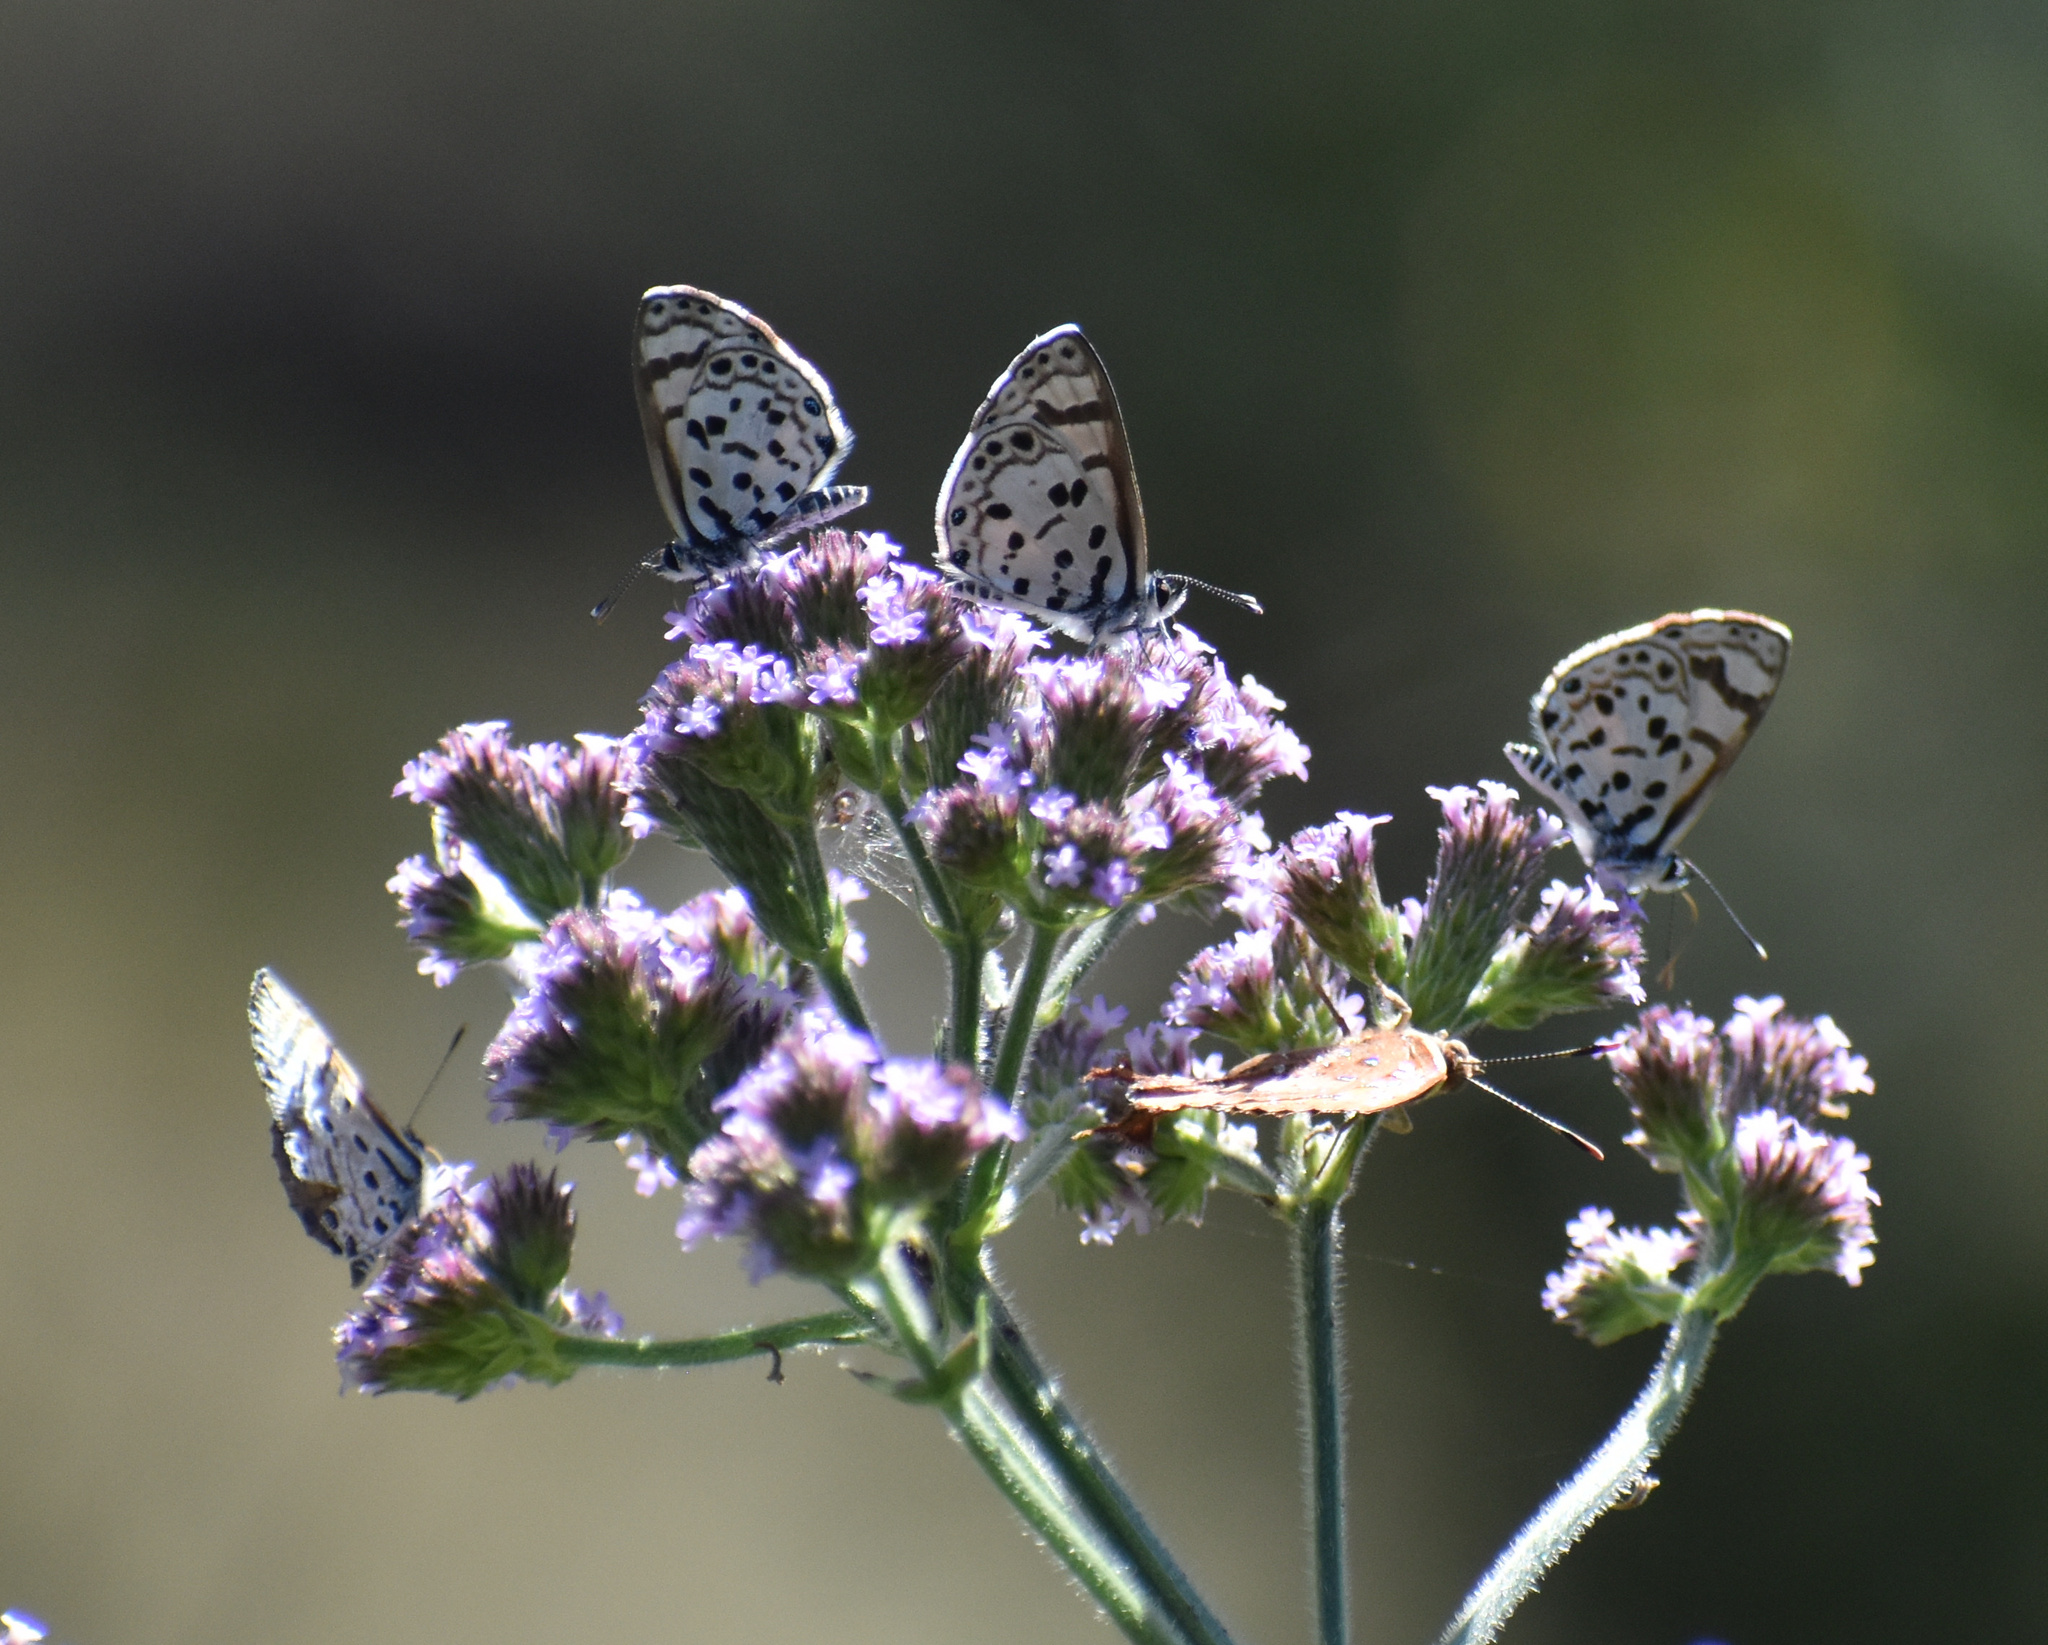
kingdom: Animalia
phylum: Arthropoda
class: Insecta
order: Lepidoptera
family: Lycaenidae
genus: Azanus
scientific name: Azanus natalensis
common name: Natal babul blue
